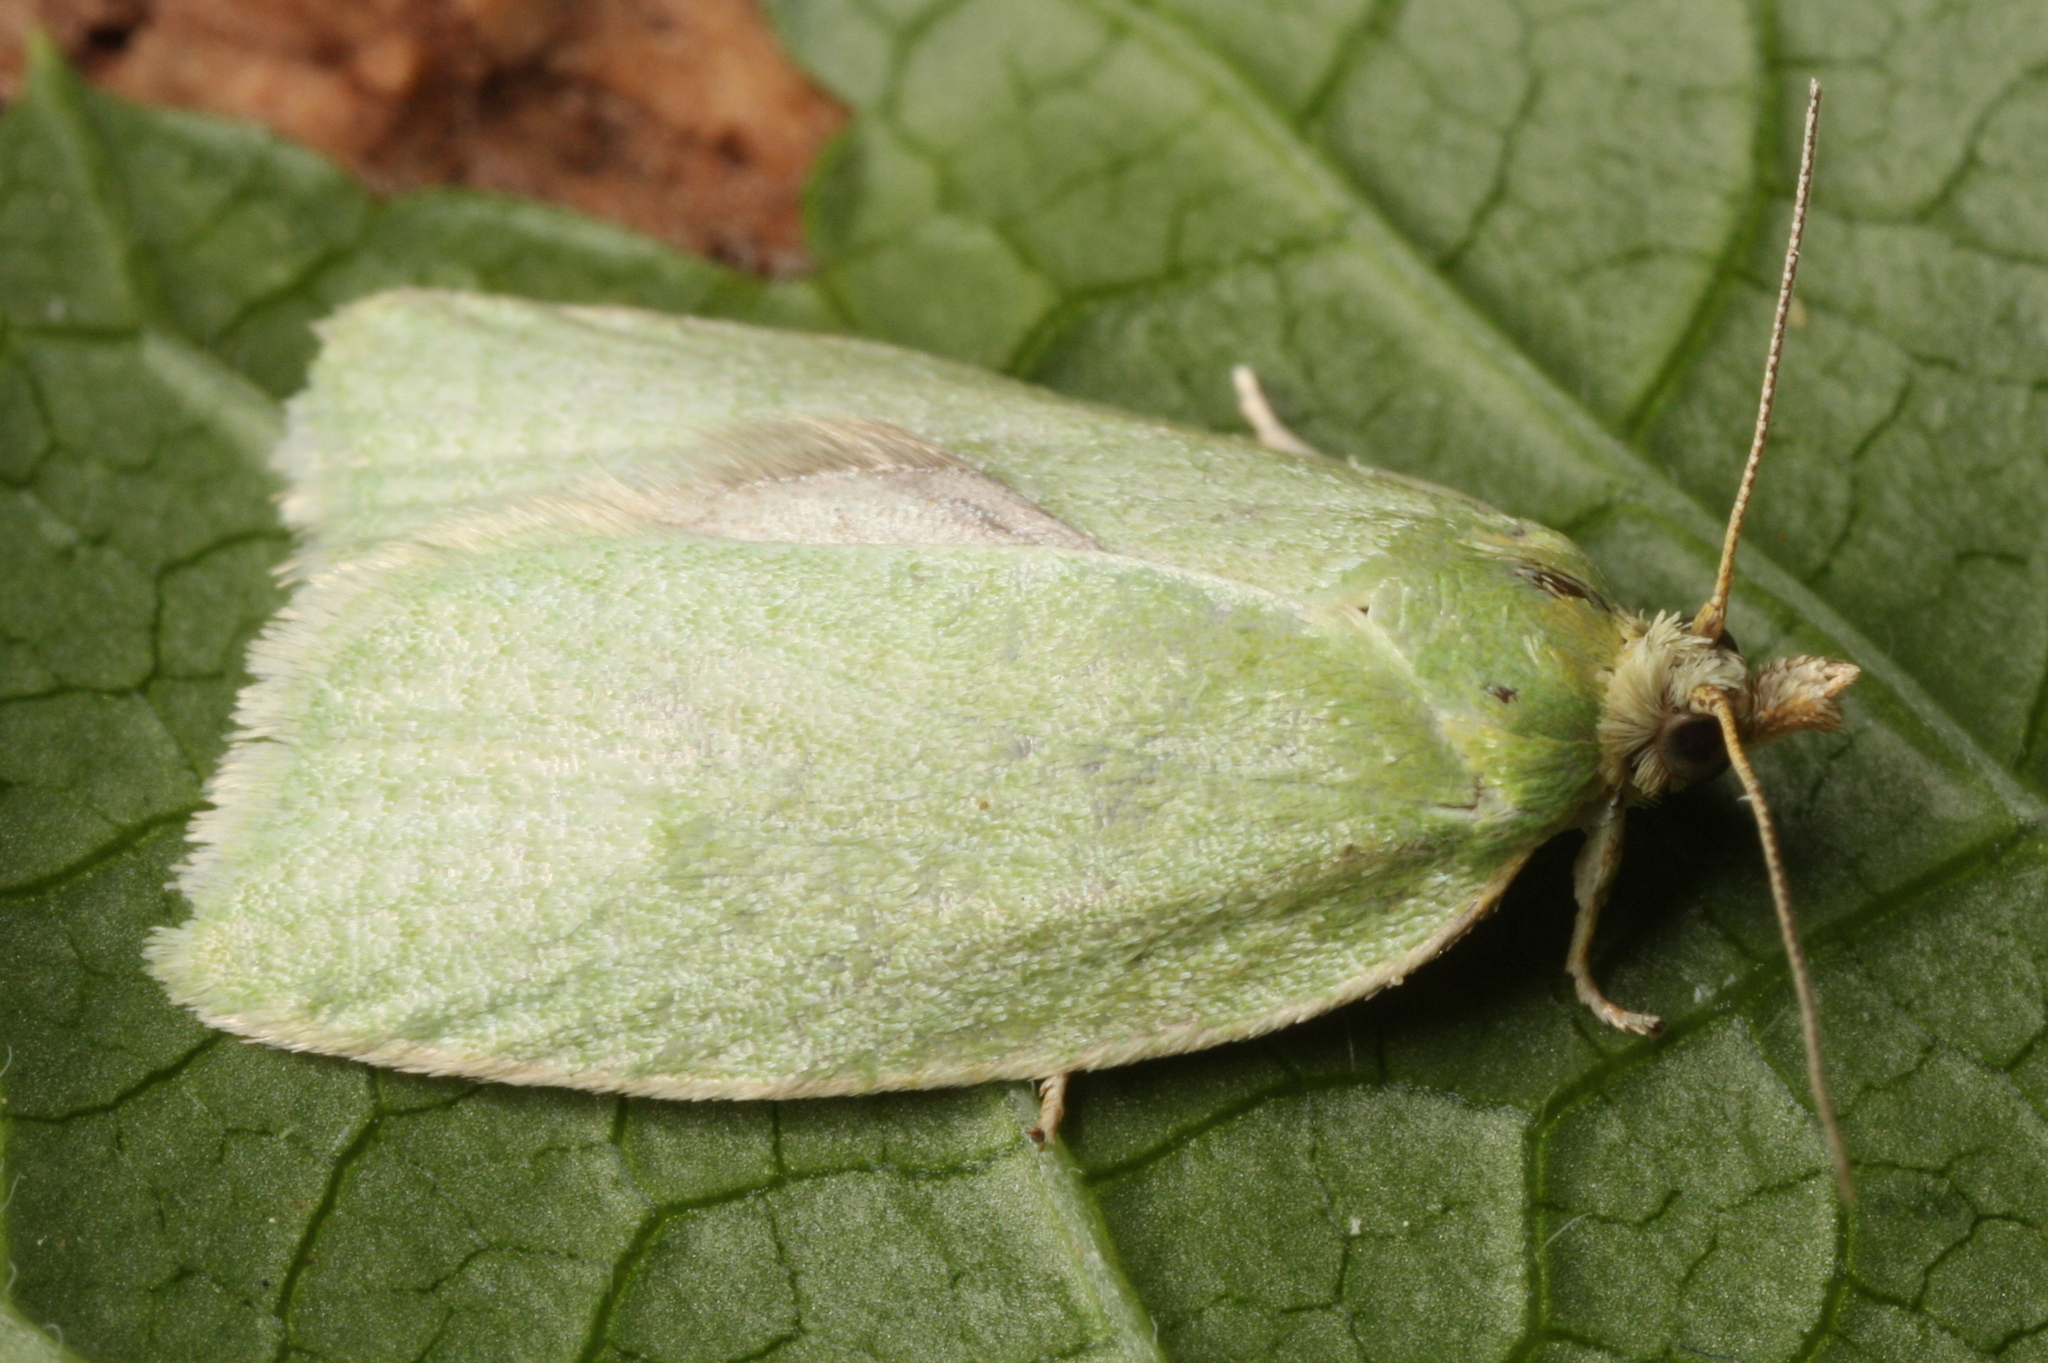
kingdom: Animalia
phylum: Arthropoda
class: Insecta
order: Lepidoptera
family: Tortricidae
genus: Tortrix
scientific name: Tortrix viridana
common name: Green oak tortrix
